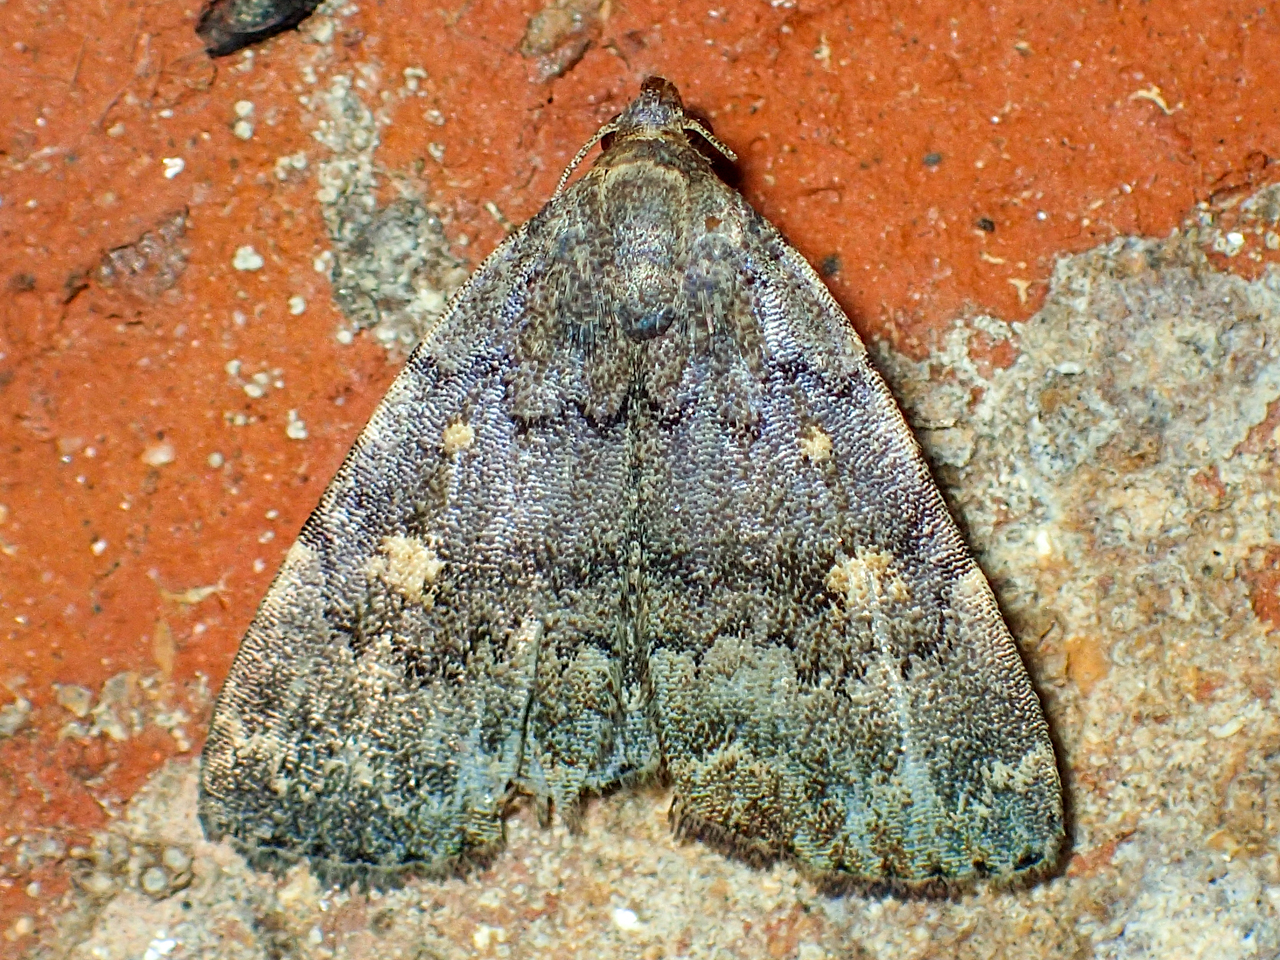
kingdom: Animalia
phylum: Arthropoda
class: Insecta
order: Lepidoptera
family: Erebidae
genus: Idia
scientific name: Idia aemula
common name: Common idia moth
